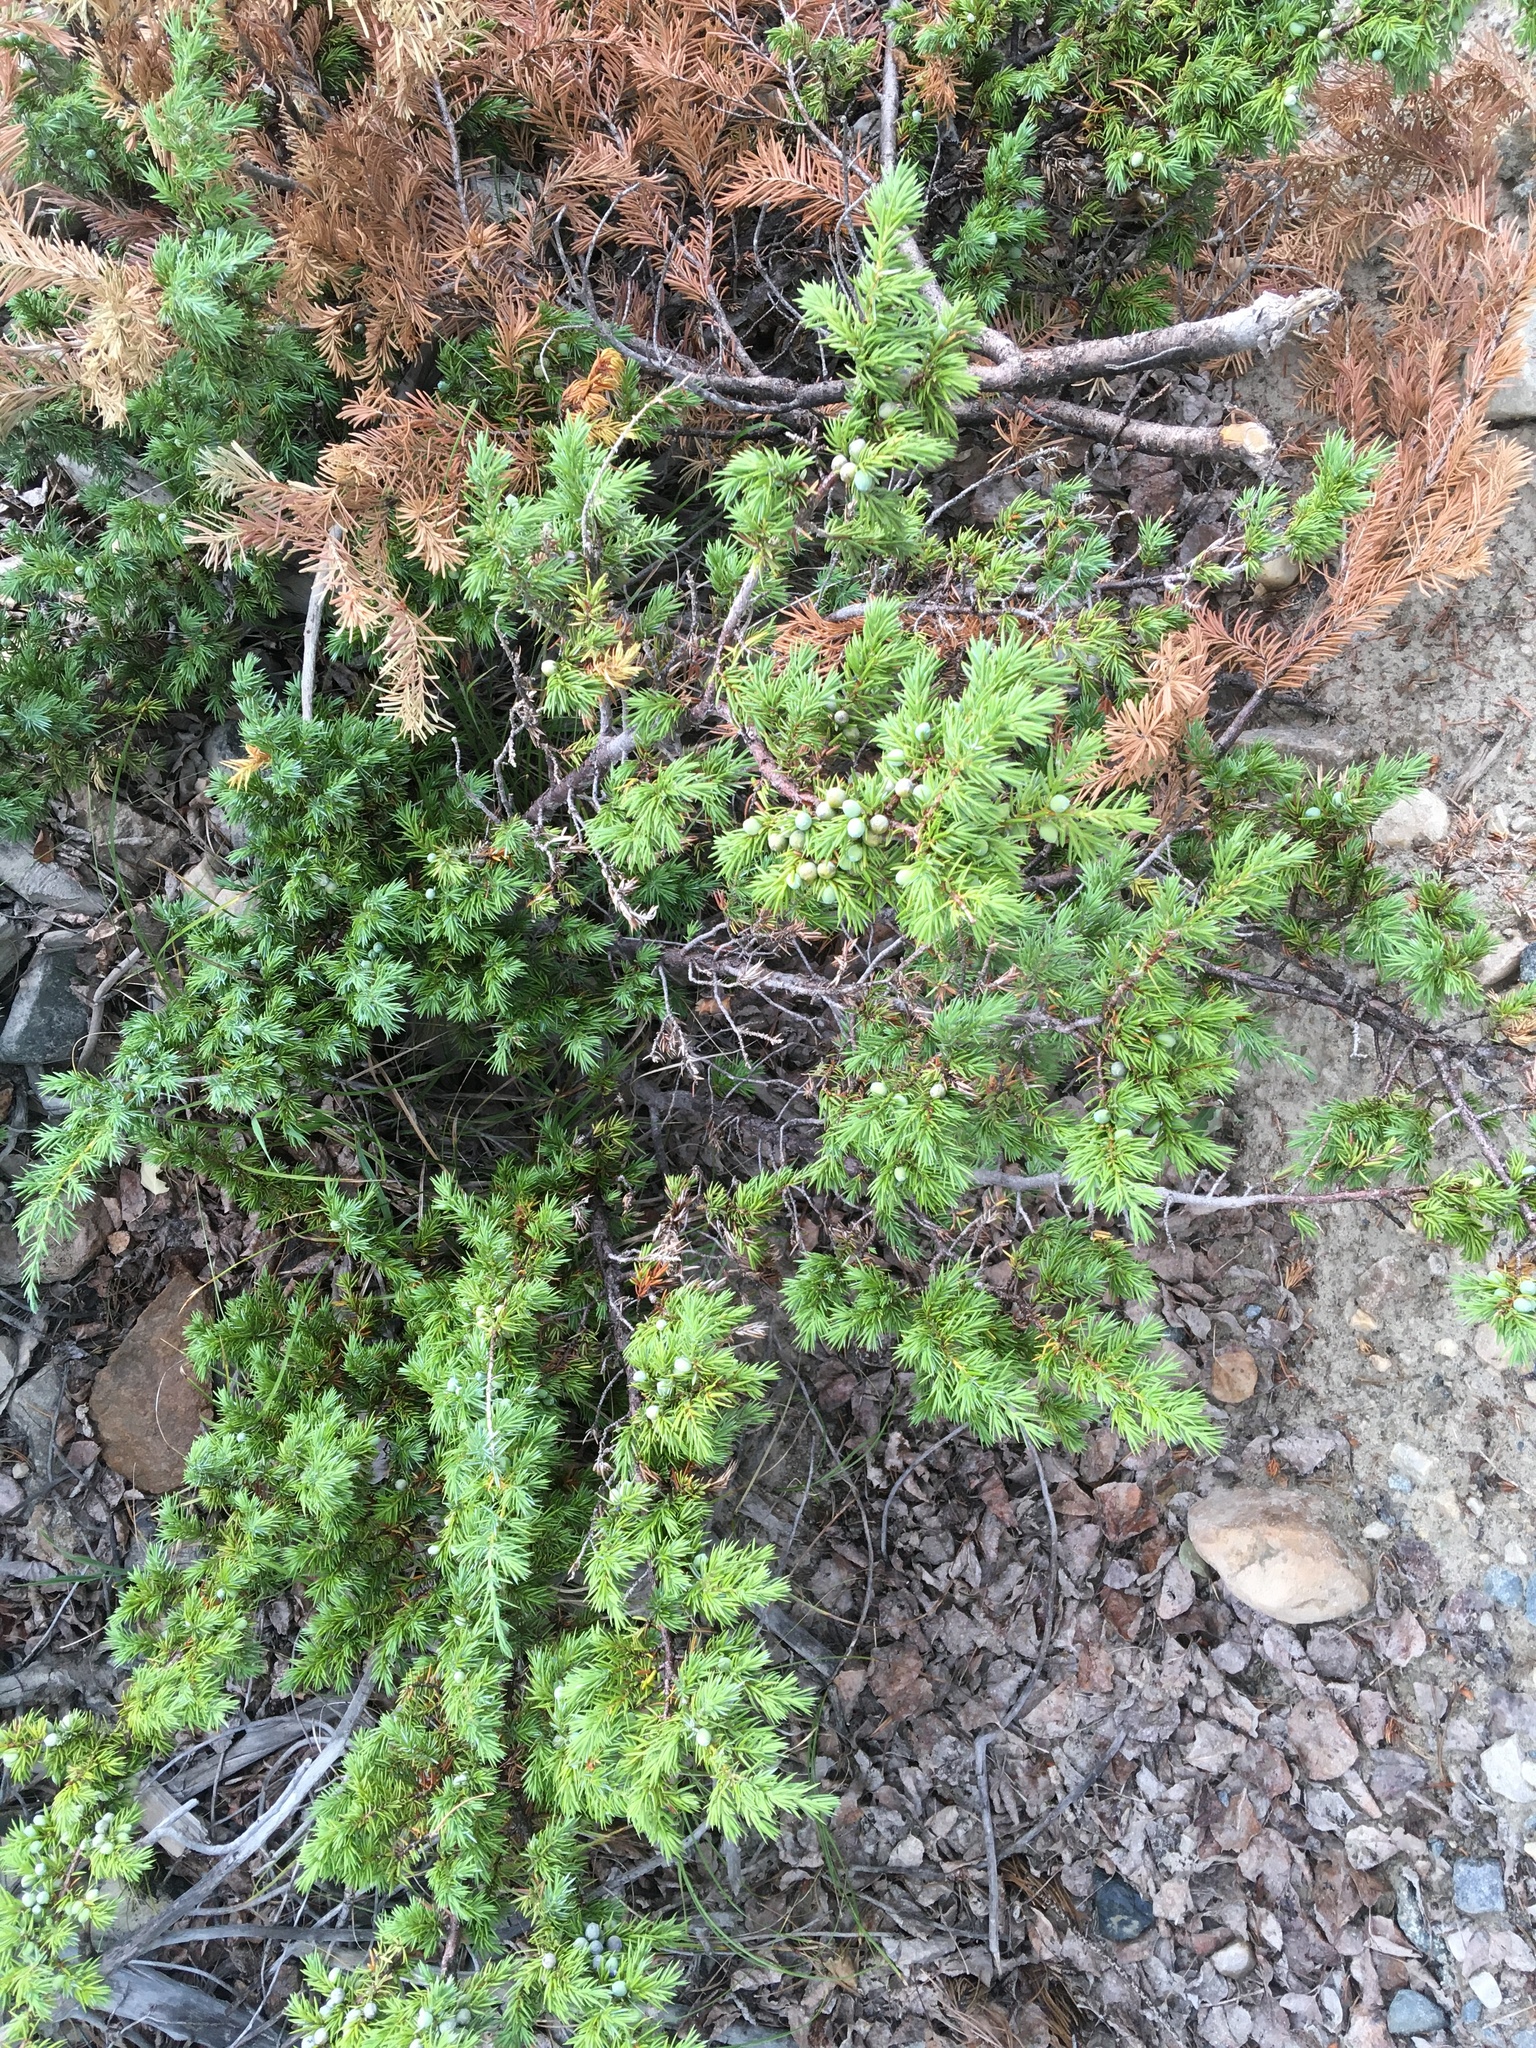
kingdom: Plantae
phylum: Tracheophyta
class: Pinopsida
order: Pinales
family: Cupressaceae
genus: Juniperus
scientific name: Juniperus communis
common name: Common juniper
